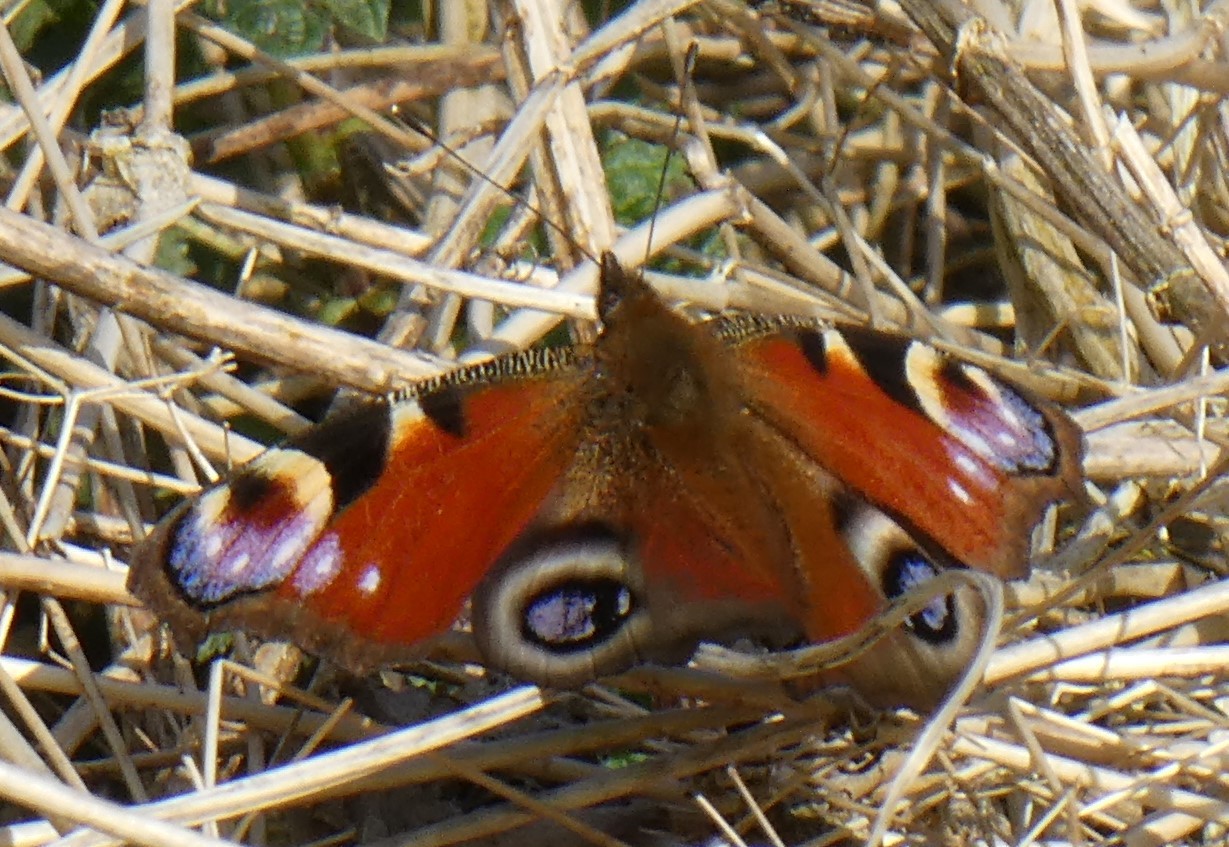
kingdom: Animalia
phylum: Arthropoda
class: Insecta
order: Lepidoptera
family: Nymphalidae
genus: Aglais
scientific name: Aglais io
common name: Peacock
